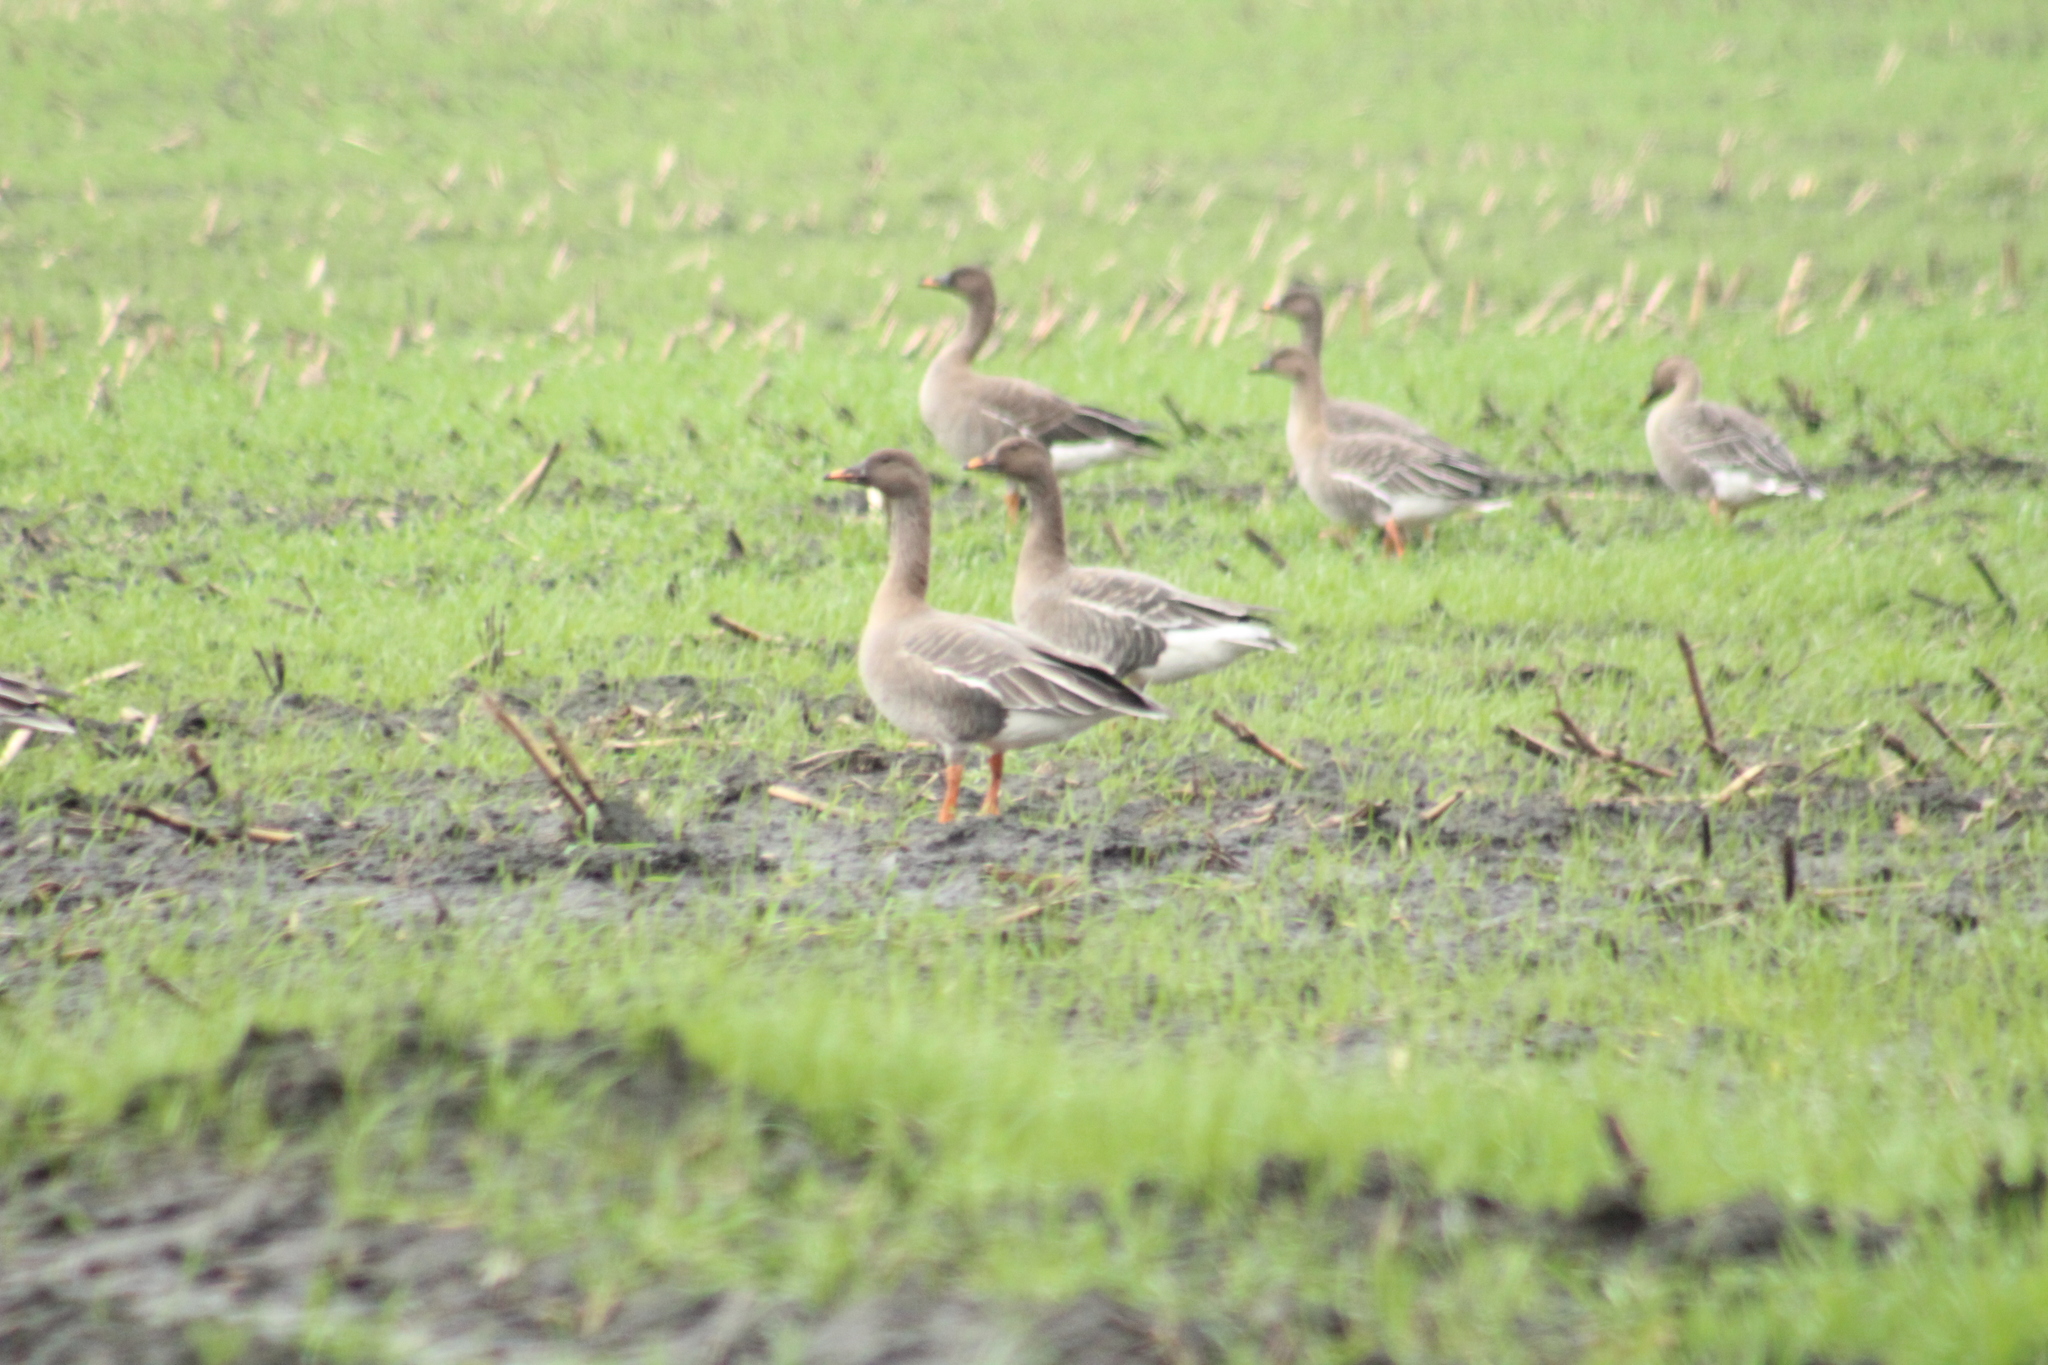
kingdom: Animalia
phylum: Chordata
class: Aves
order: Anseriformes
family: Anatidae
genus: Anser
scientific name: Anser serrirostris
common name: Tundra bean goose
